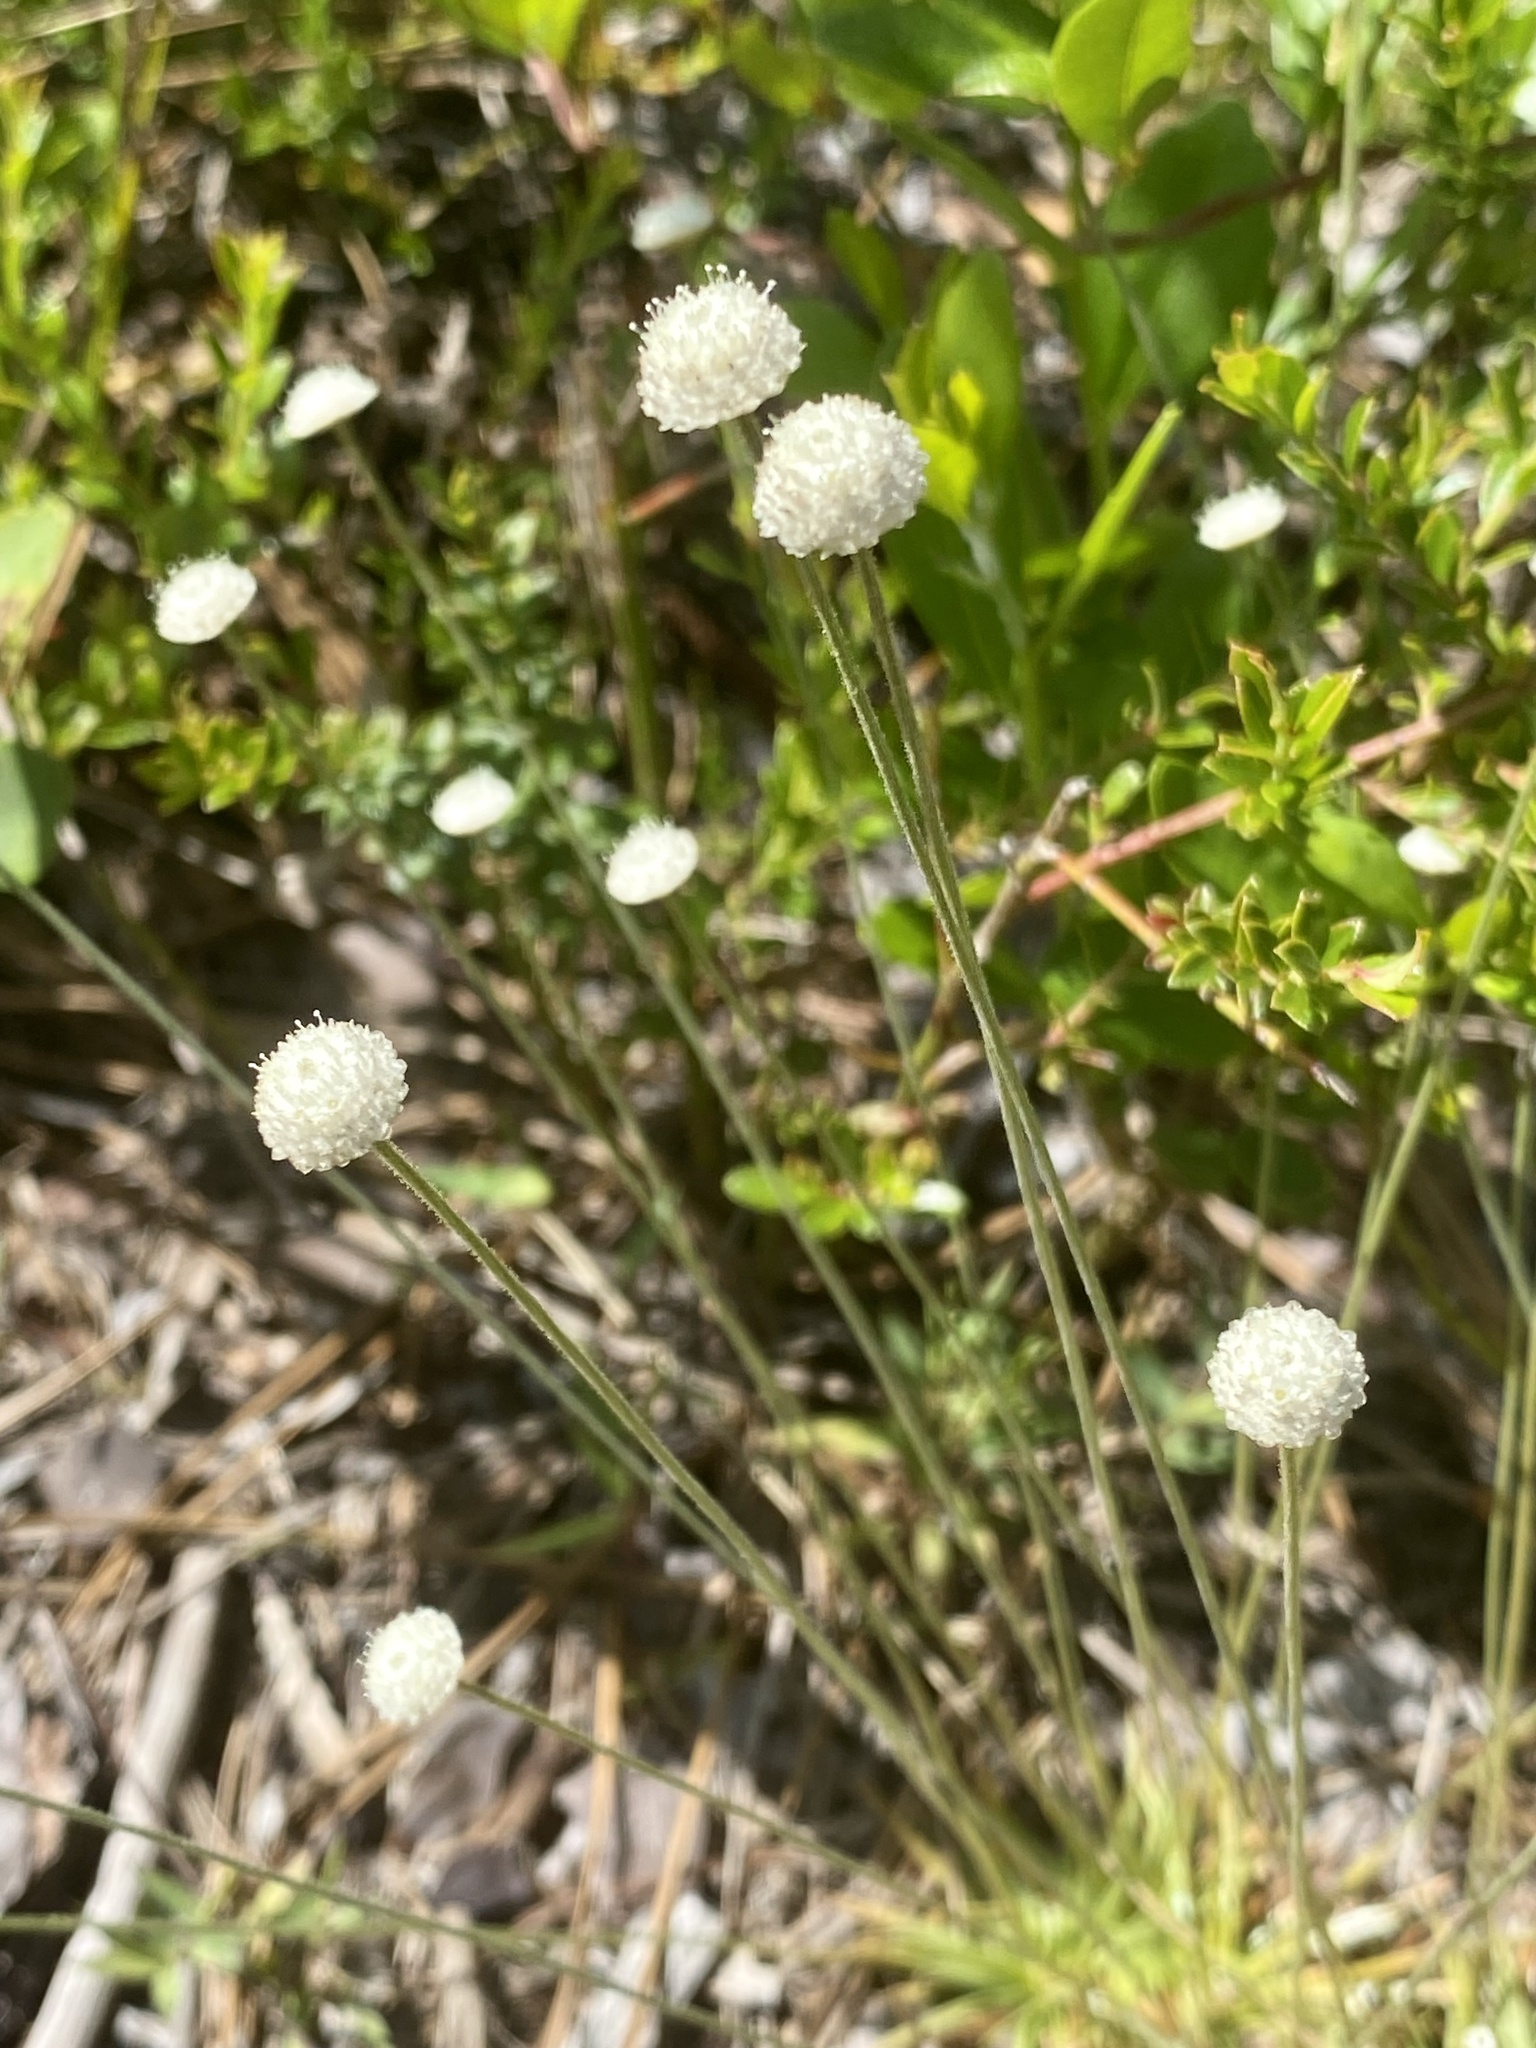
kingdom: Plantae
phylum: Tracheophyta
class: Liliopsida
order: Poales
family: Eriocaulaceae
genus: Syngonanthus
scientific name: Syngonanthus flavidulus
